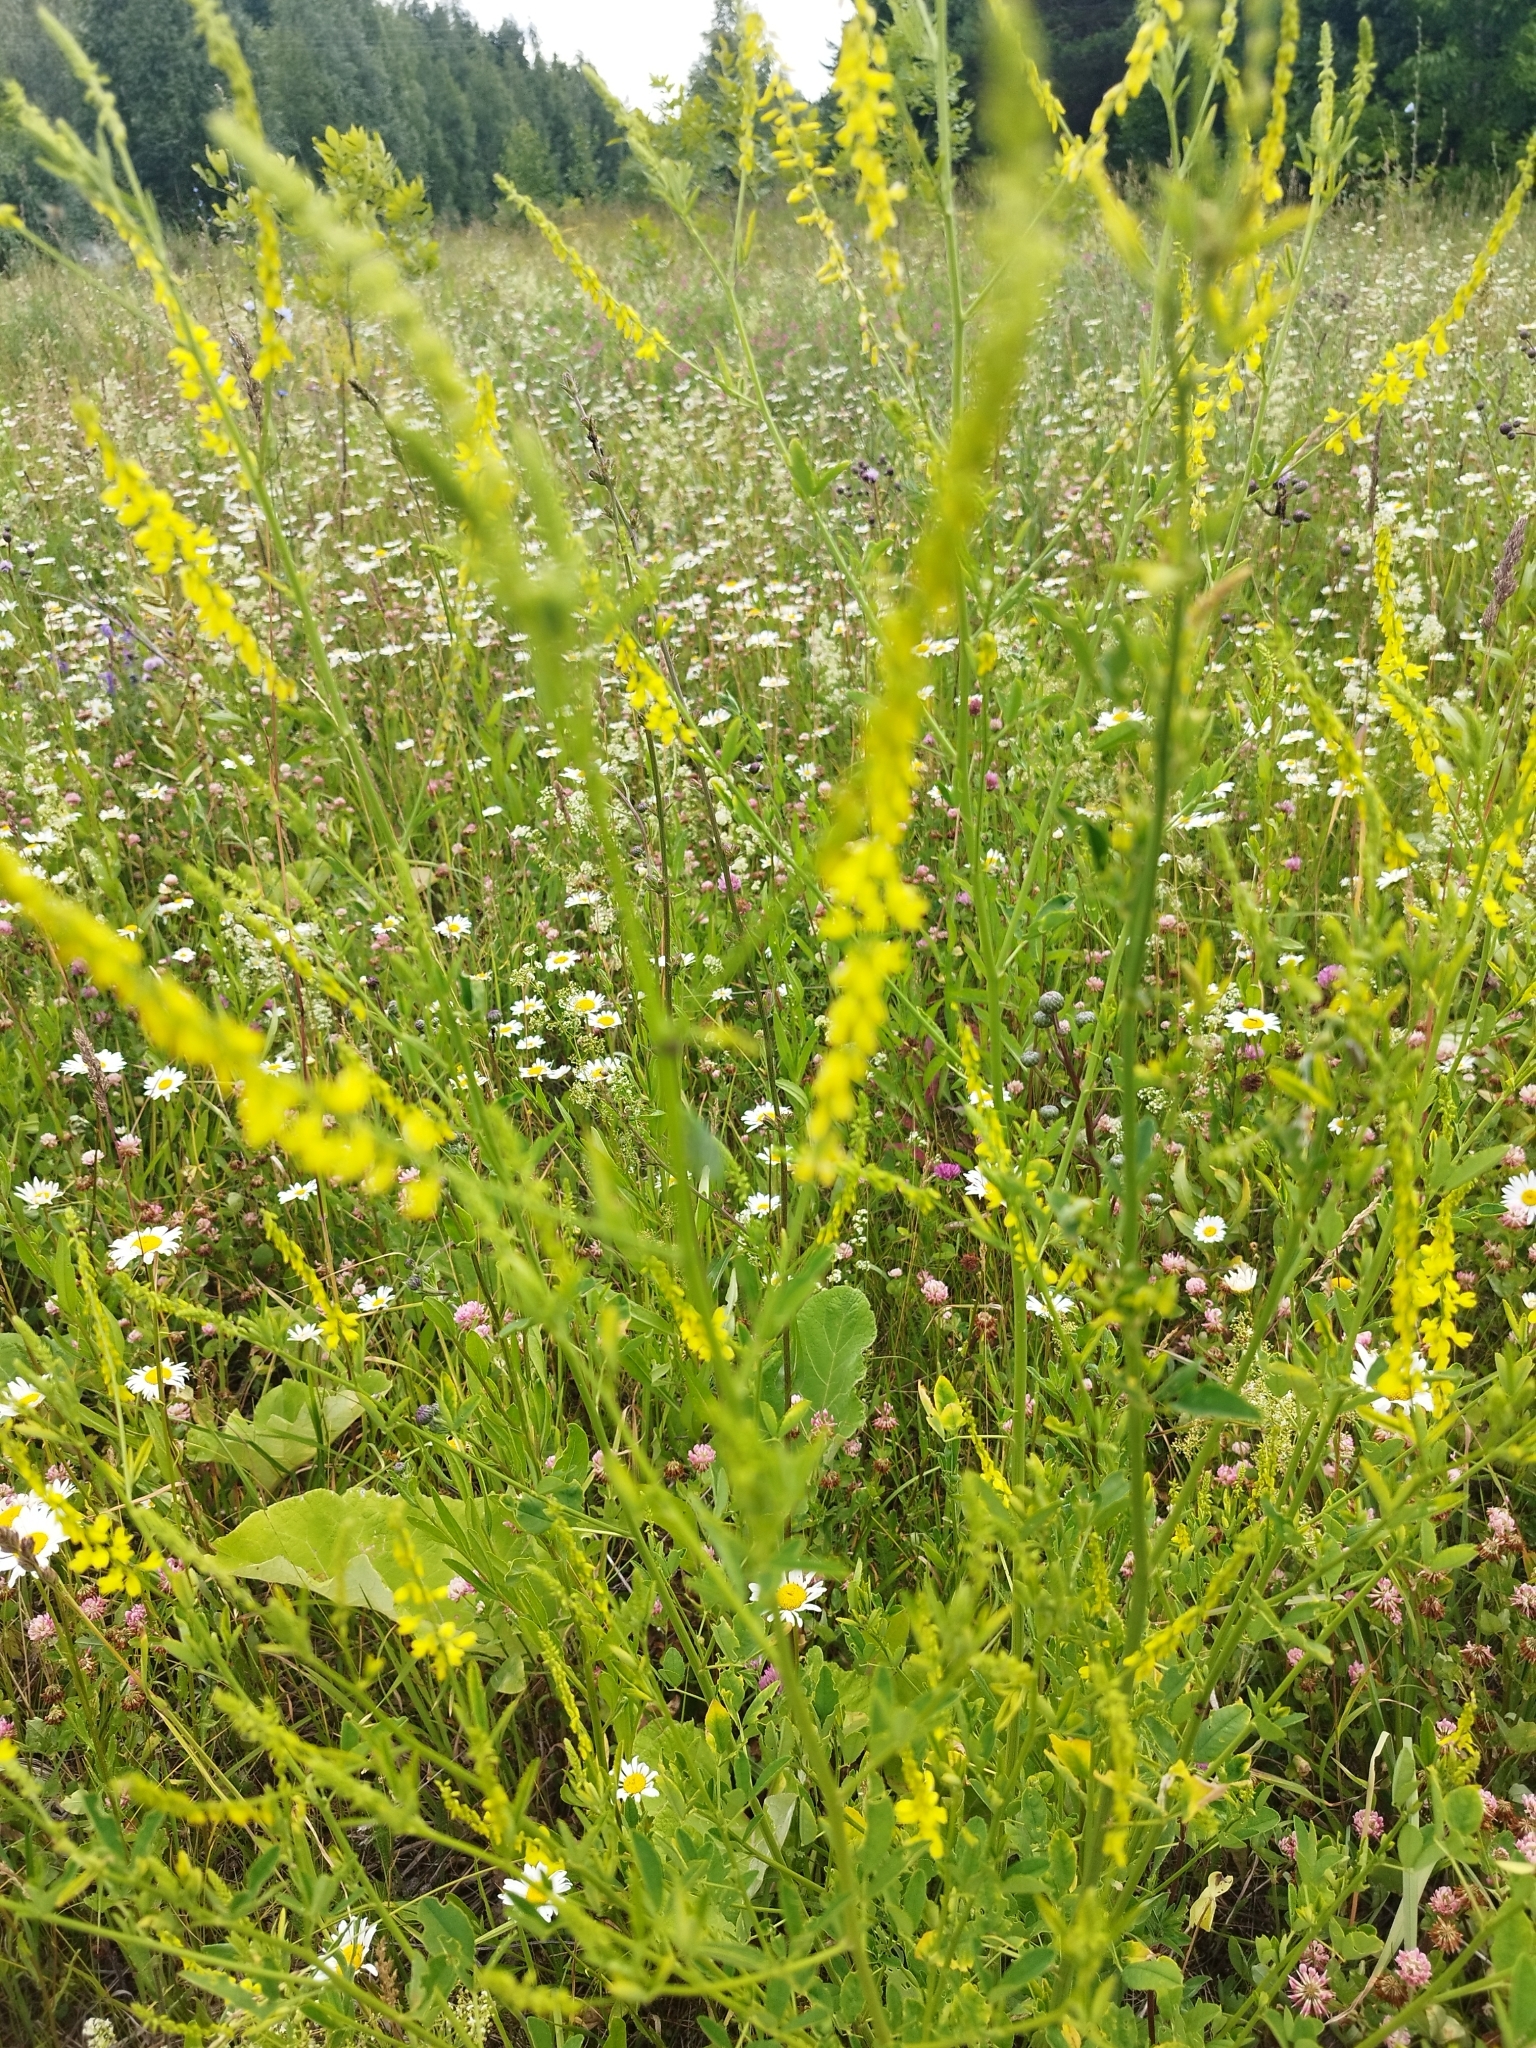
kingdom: Plantae
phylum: Tracheophyta
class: Magnoliopsida
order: Fabales
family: Fabaceae
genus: Melilotus
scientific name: Melilotus officinalis
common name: Sweetclover
